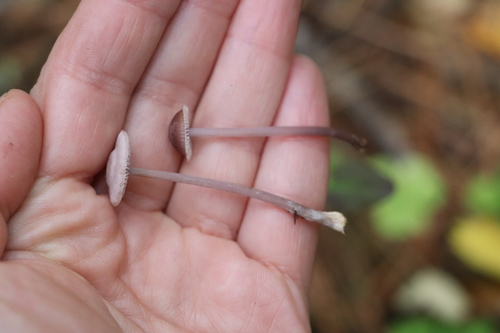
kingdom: Fungi
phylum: Basidiomycota
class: Agaricomycetes
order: Agaricales
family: Mycenaceae
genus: Mycena
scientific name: Mycena pura
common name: Lilac bonnet
